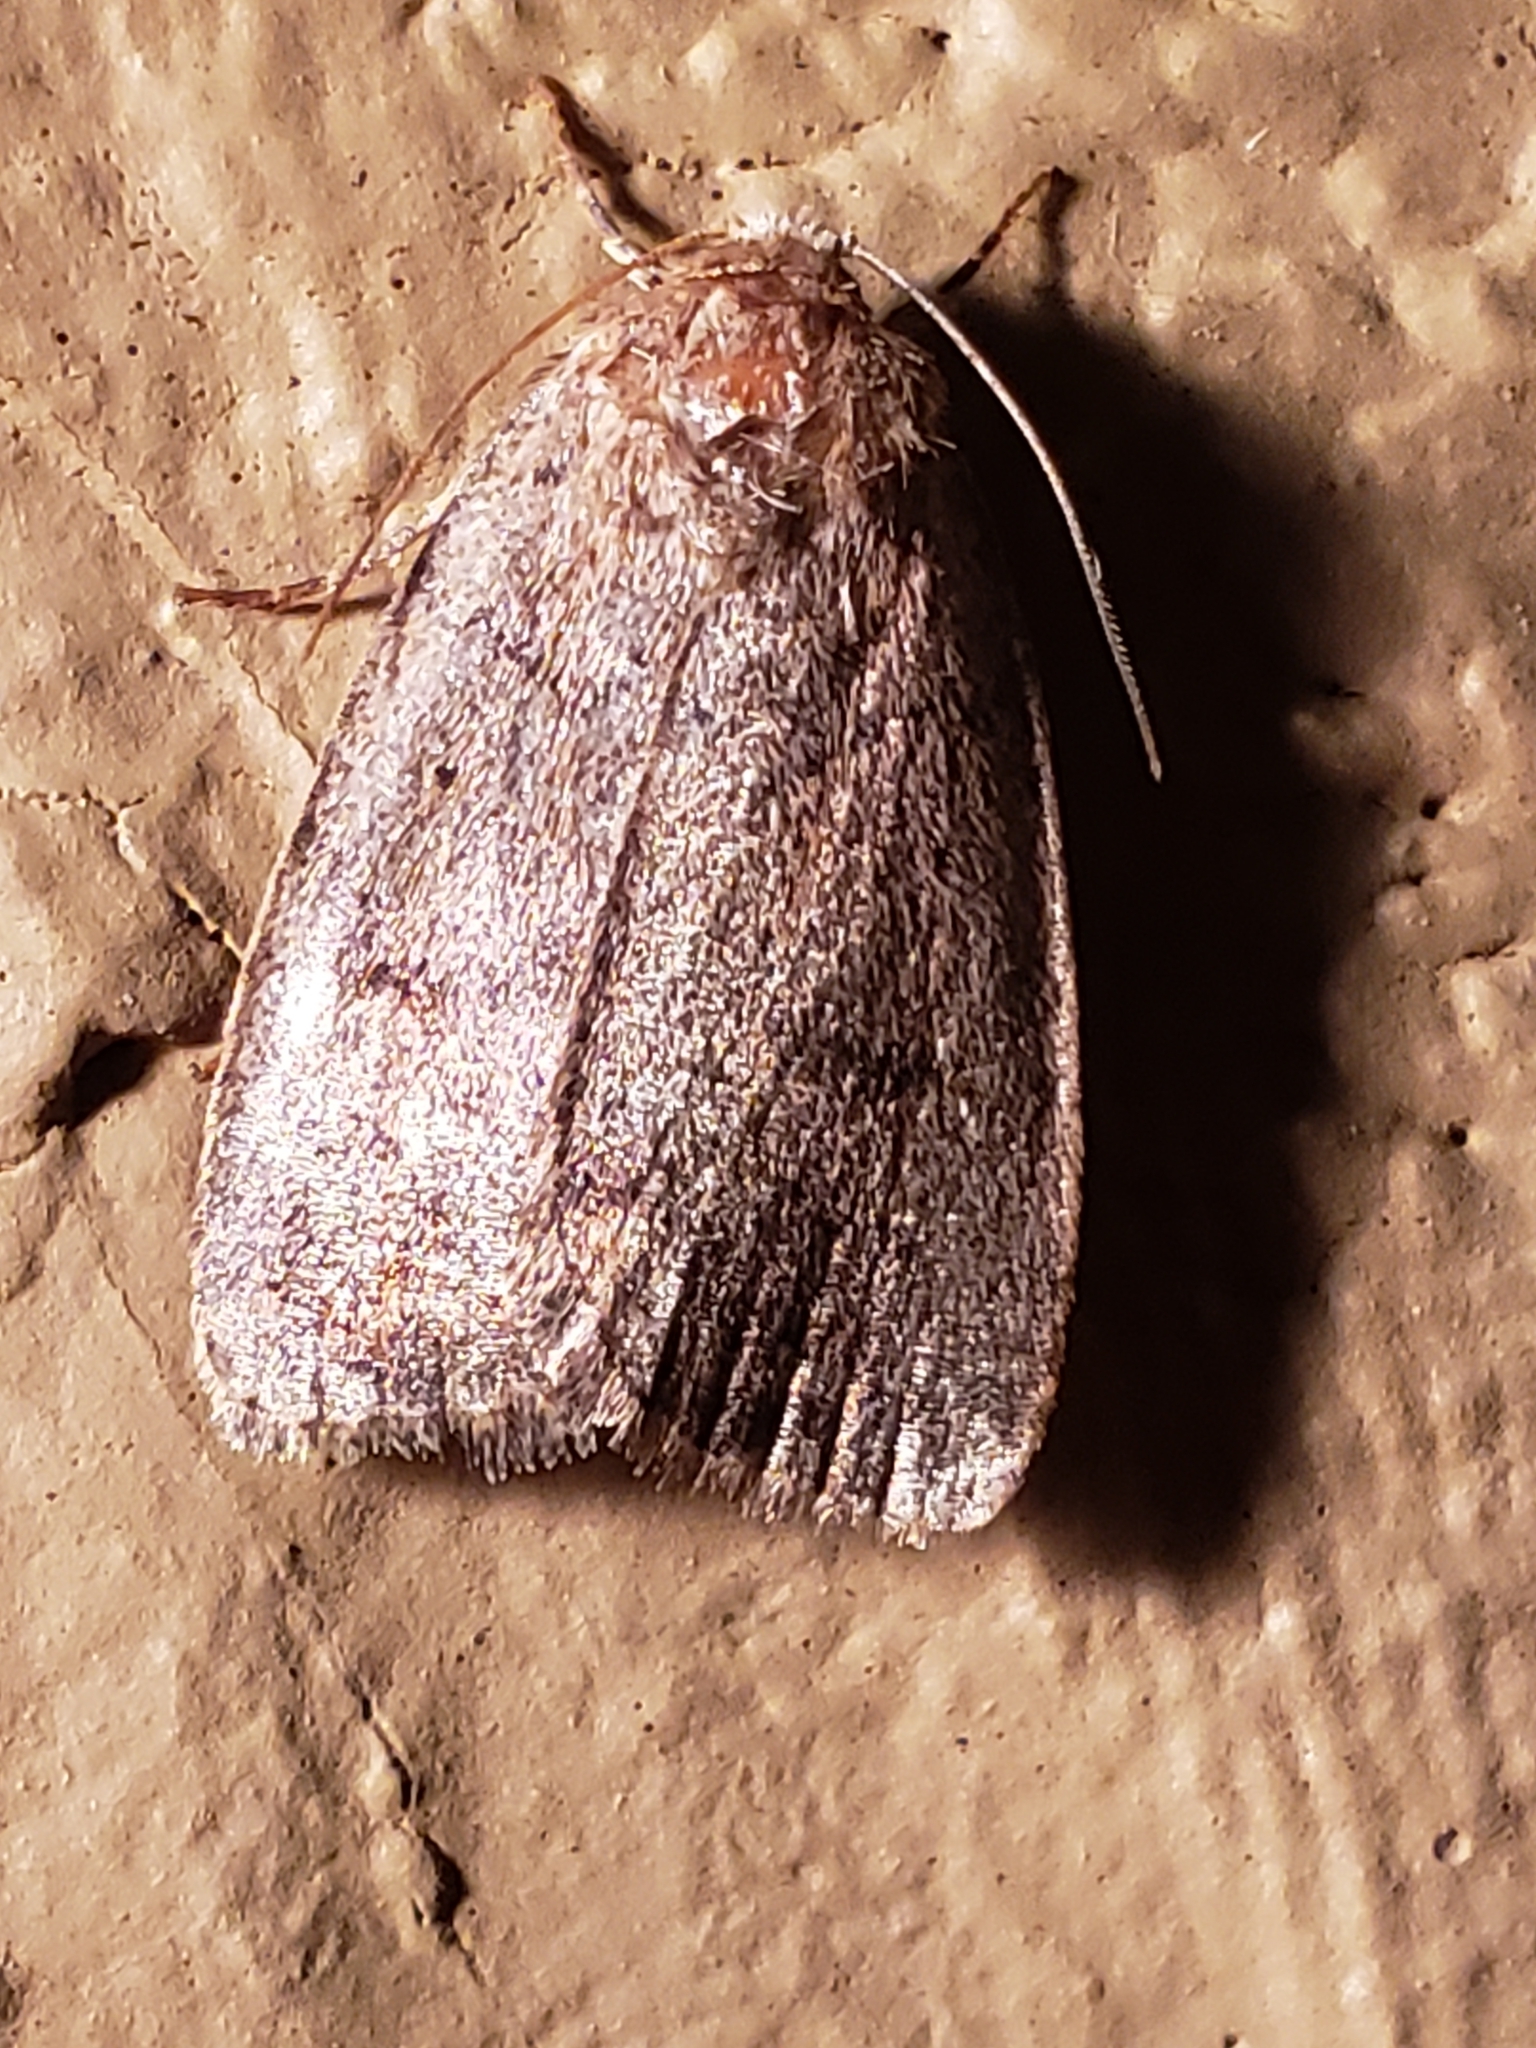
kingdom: Animalia
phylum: Arthropoda
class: Insecta
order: Lepidoptera
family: Noctuidae
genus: Athetis
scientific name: Athetis tarda
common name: Slowpoke moth
